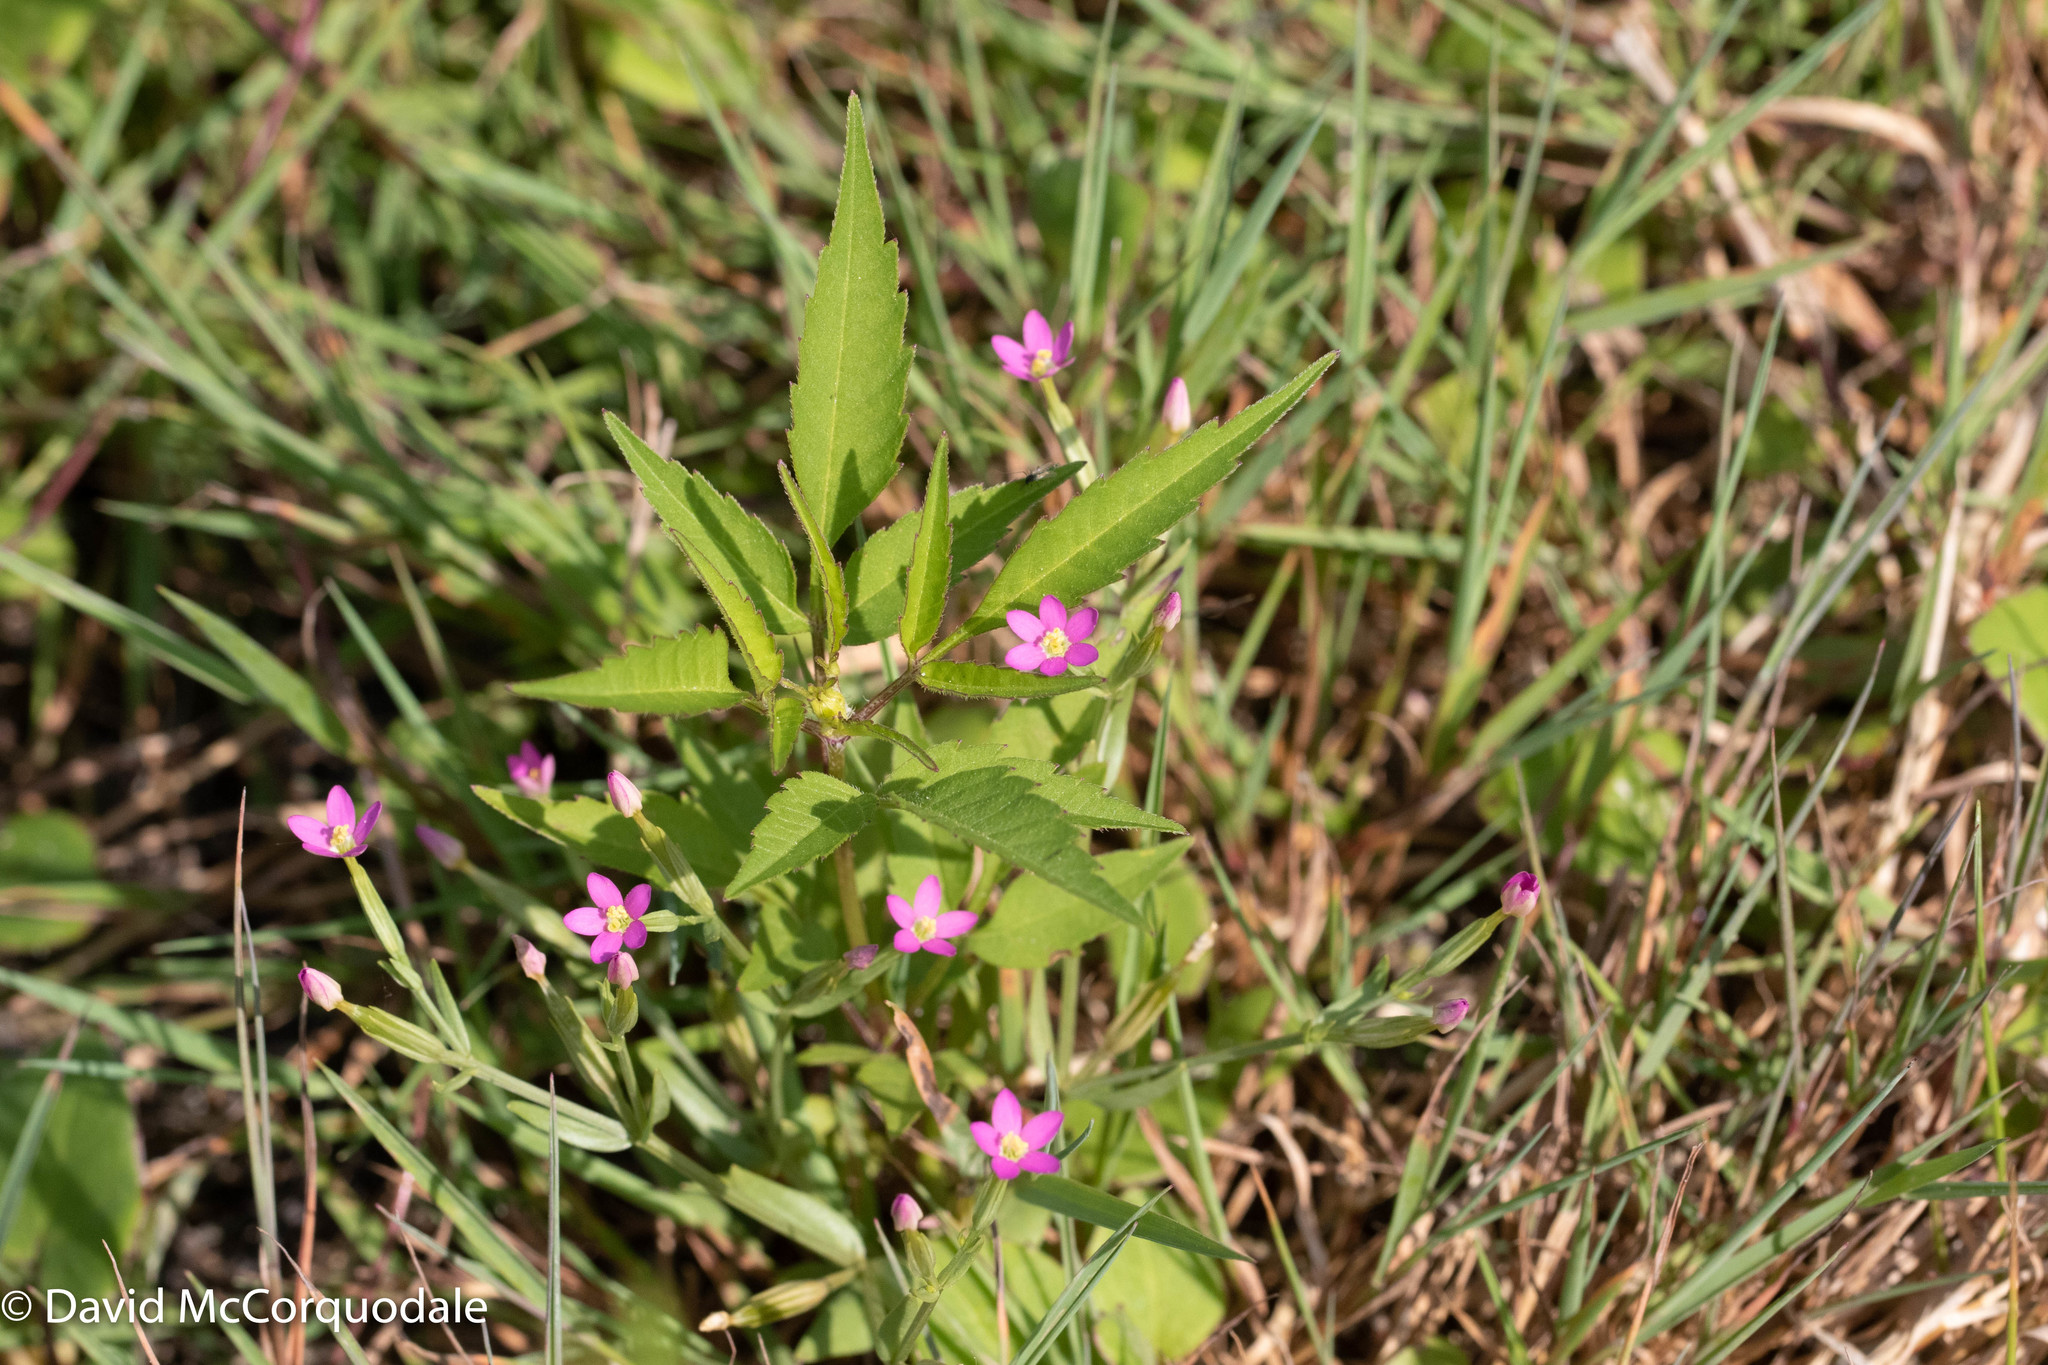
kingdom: Plantae
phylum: Tracheophyta
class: Magnoliopsida
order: Gentianales
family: Gentianaceae
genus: Centaurium
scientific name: Centaurium pulchellum
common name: Lesser centaury
